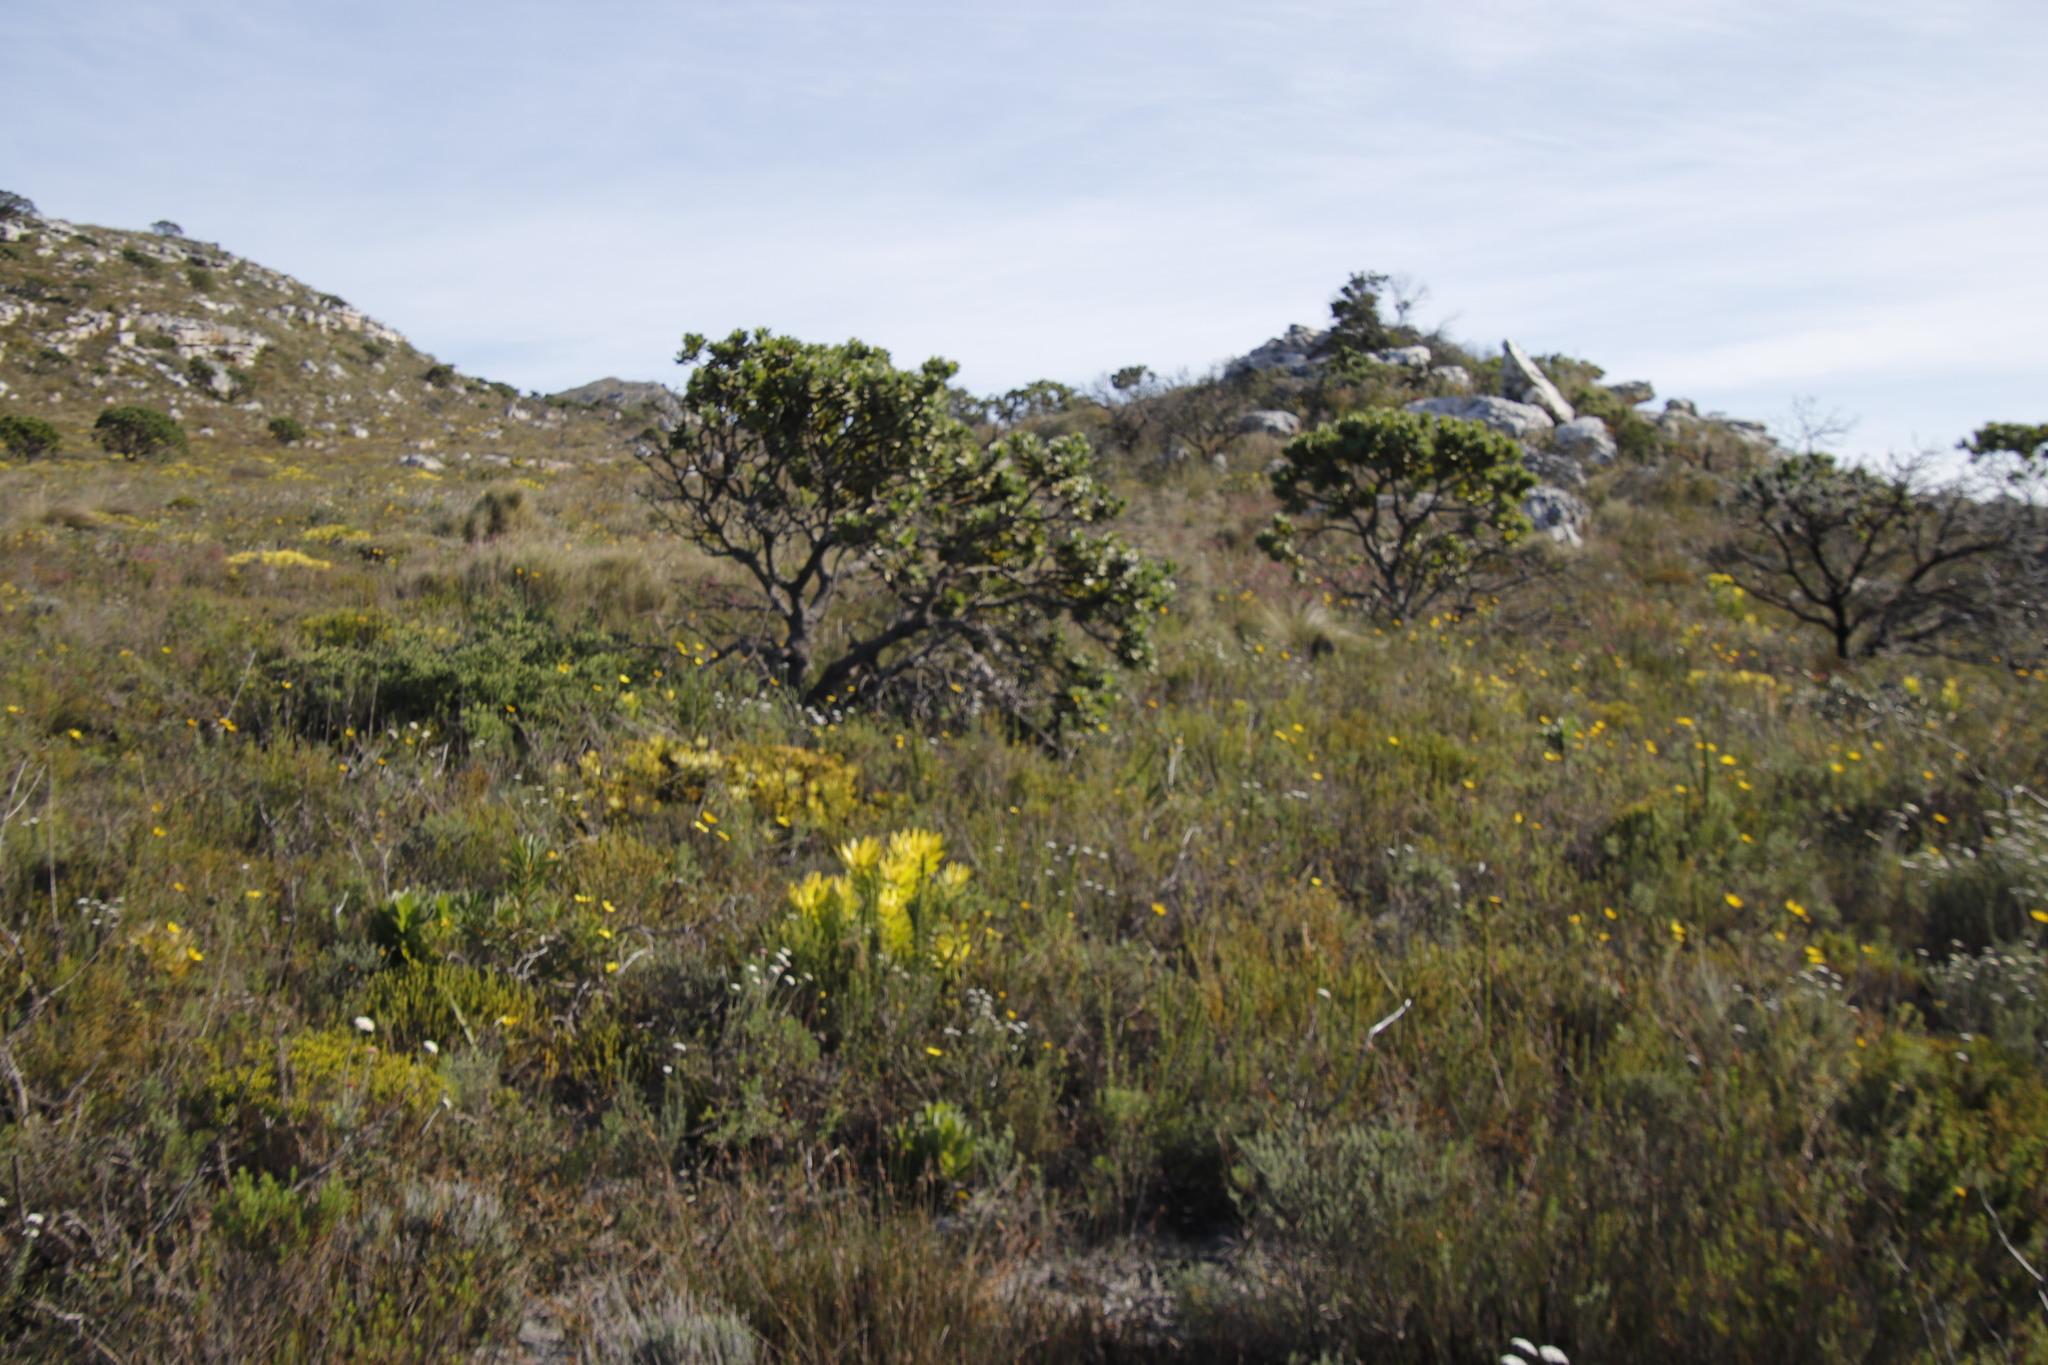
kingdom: Plantae
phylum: Tracheophyta
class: Magnoliopsida
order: Proteales
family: Proteaceae
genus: Leucospermum
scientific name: Leucospermum conocarpodendron
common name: Tree pincushion
